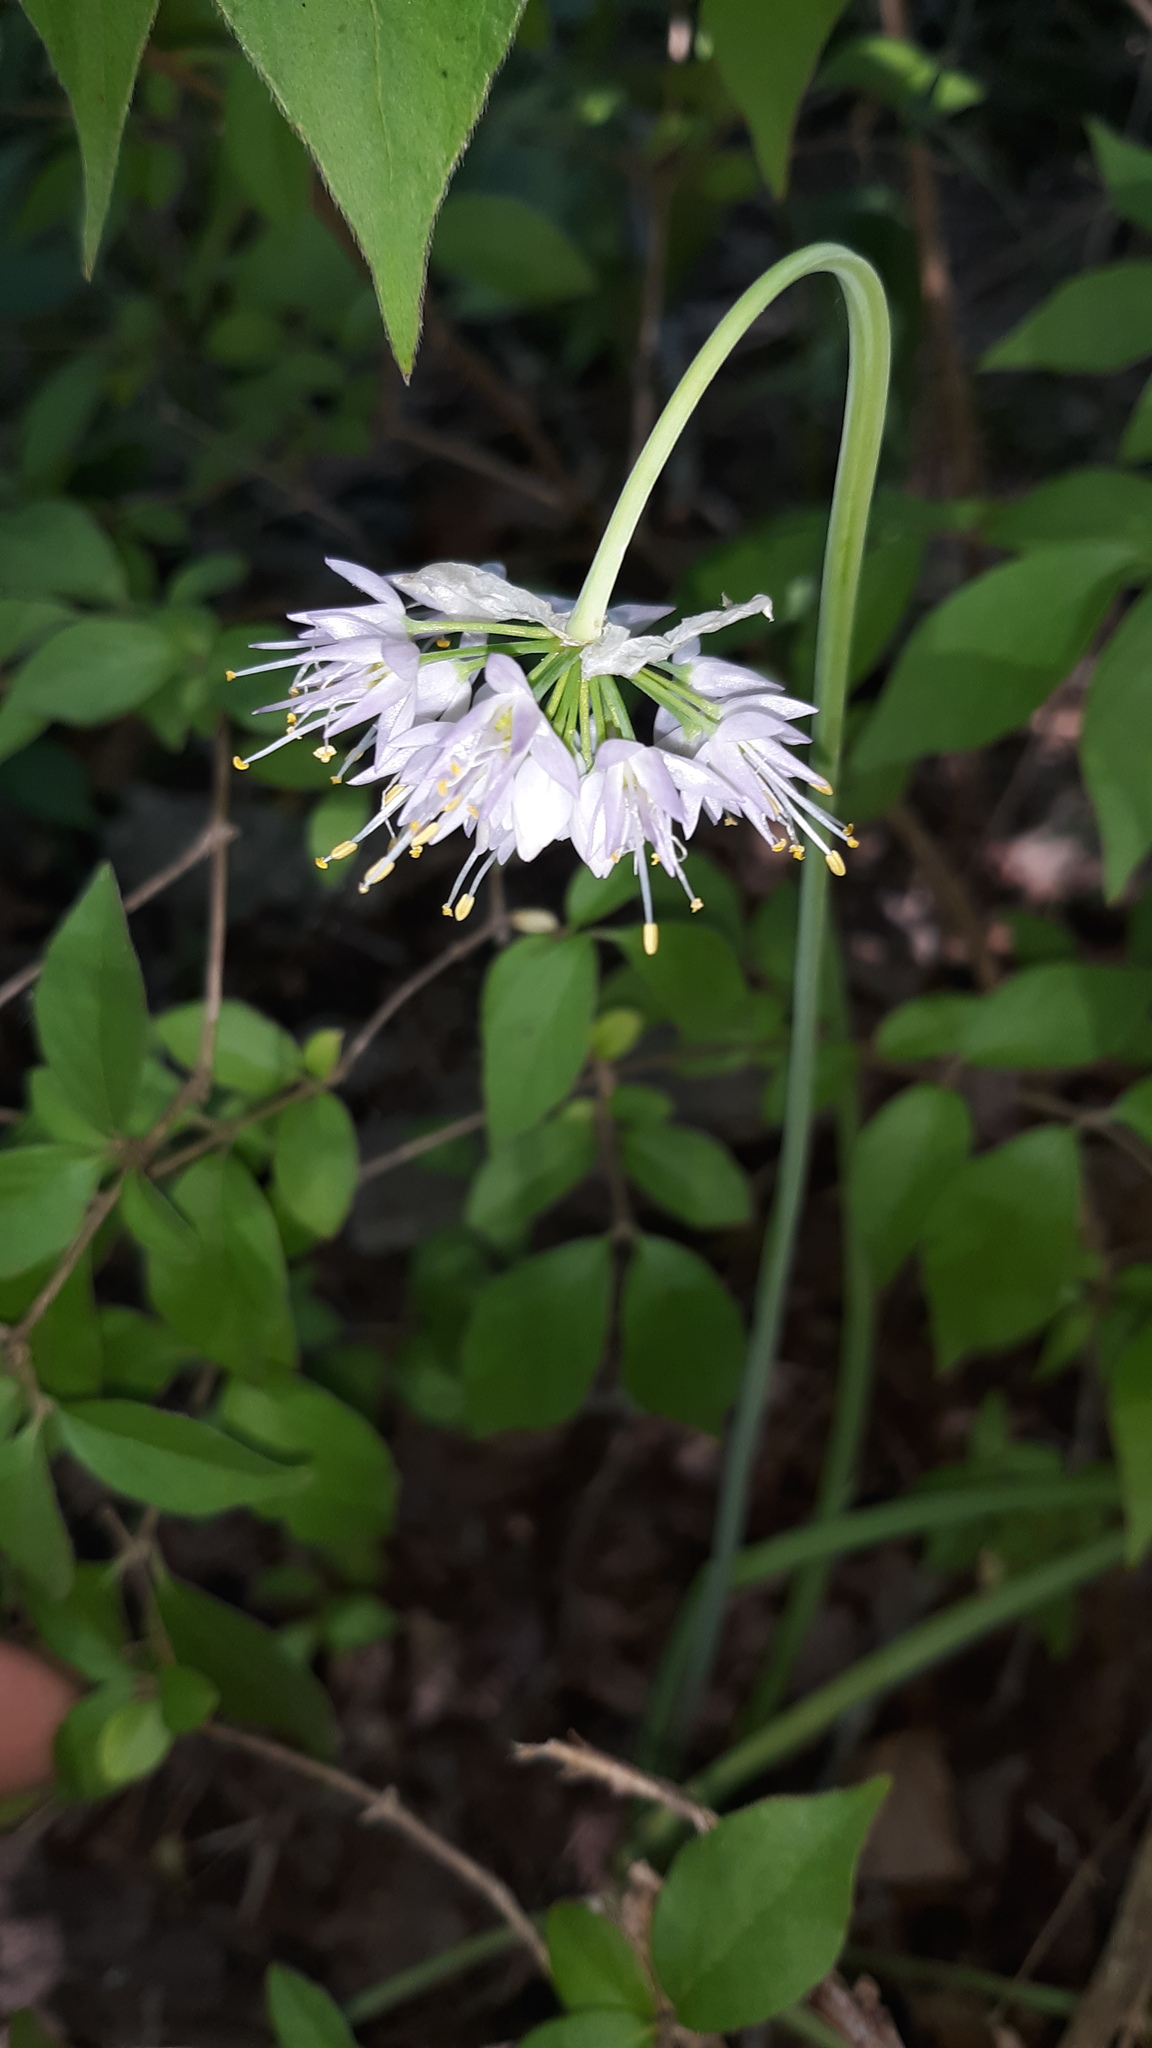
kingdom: Plantae
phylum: Tracheophyta
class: Liliopsida
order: Asparagales
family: Amaryllidaceae
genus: Allium
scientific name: Allium cernuum
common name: Nodding onion
